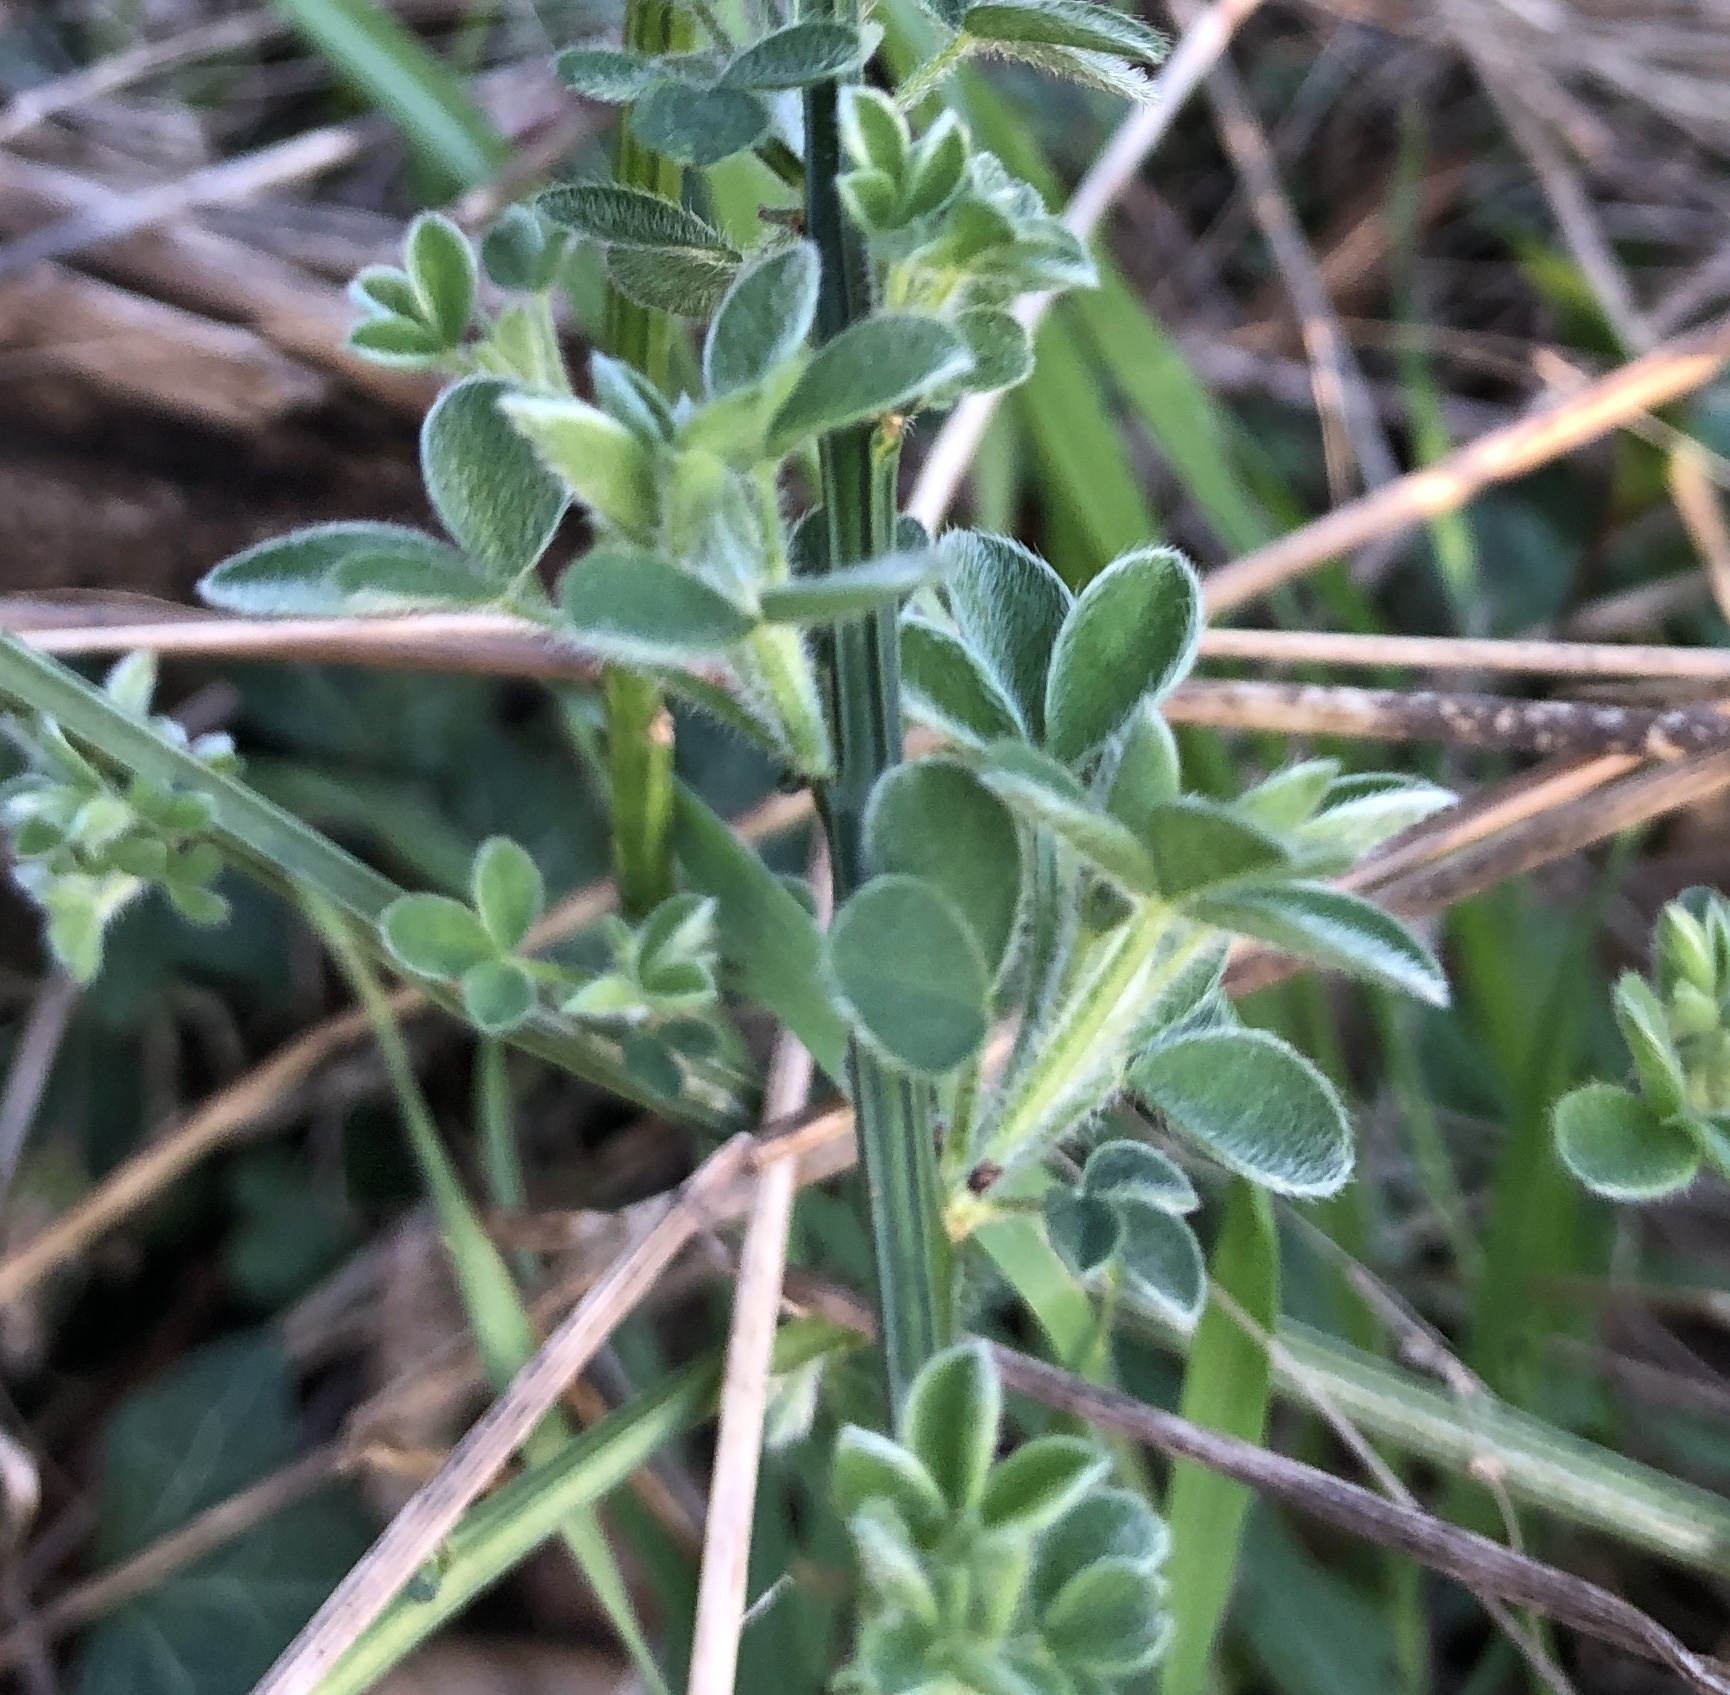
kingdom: Plantae
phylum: Tracheophyta
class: Magnoliopsida
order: Fabales
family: Fabaceae
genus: Cytisus
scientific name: Cytisus scoparius
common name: Scotch broom
